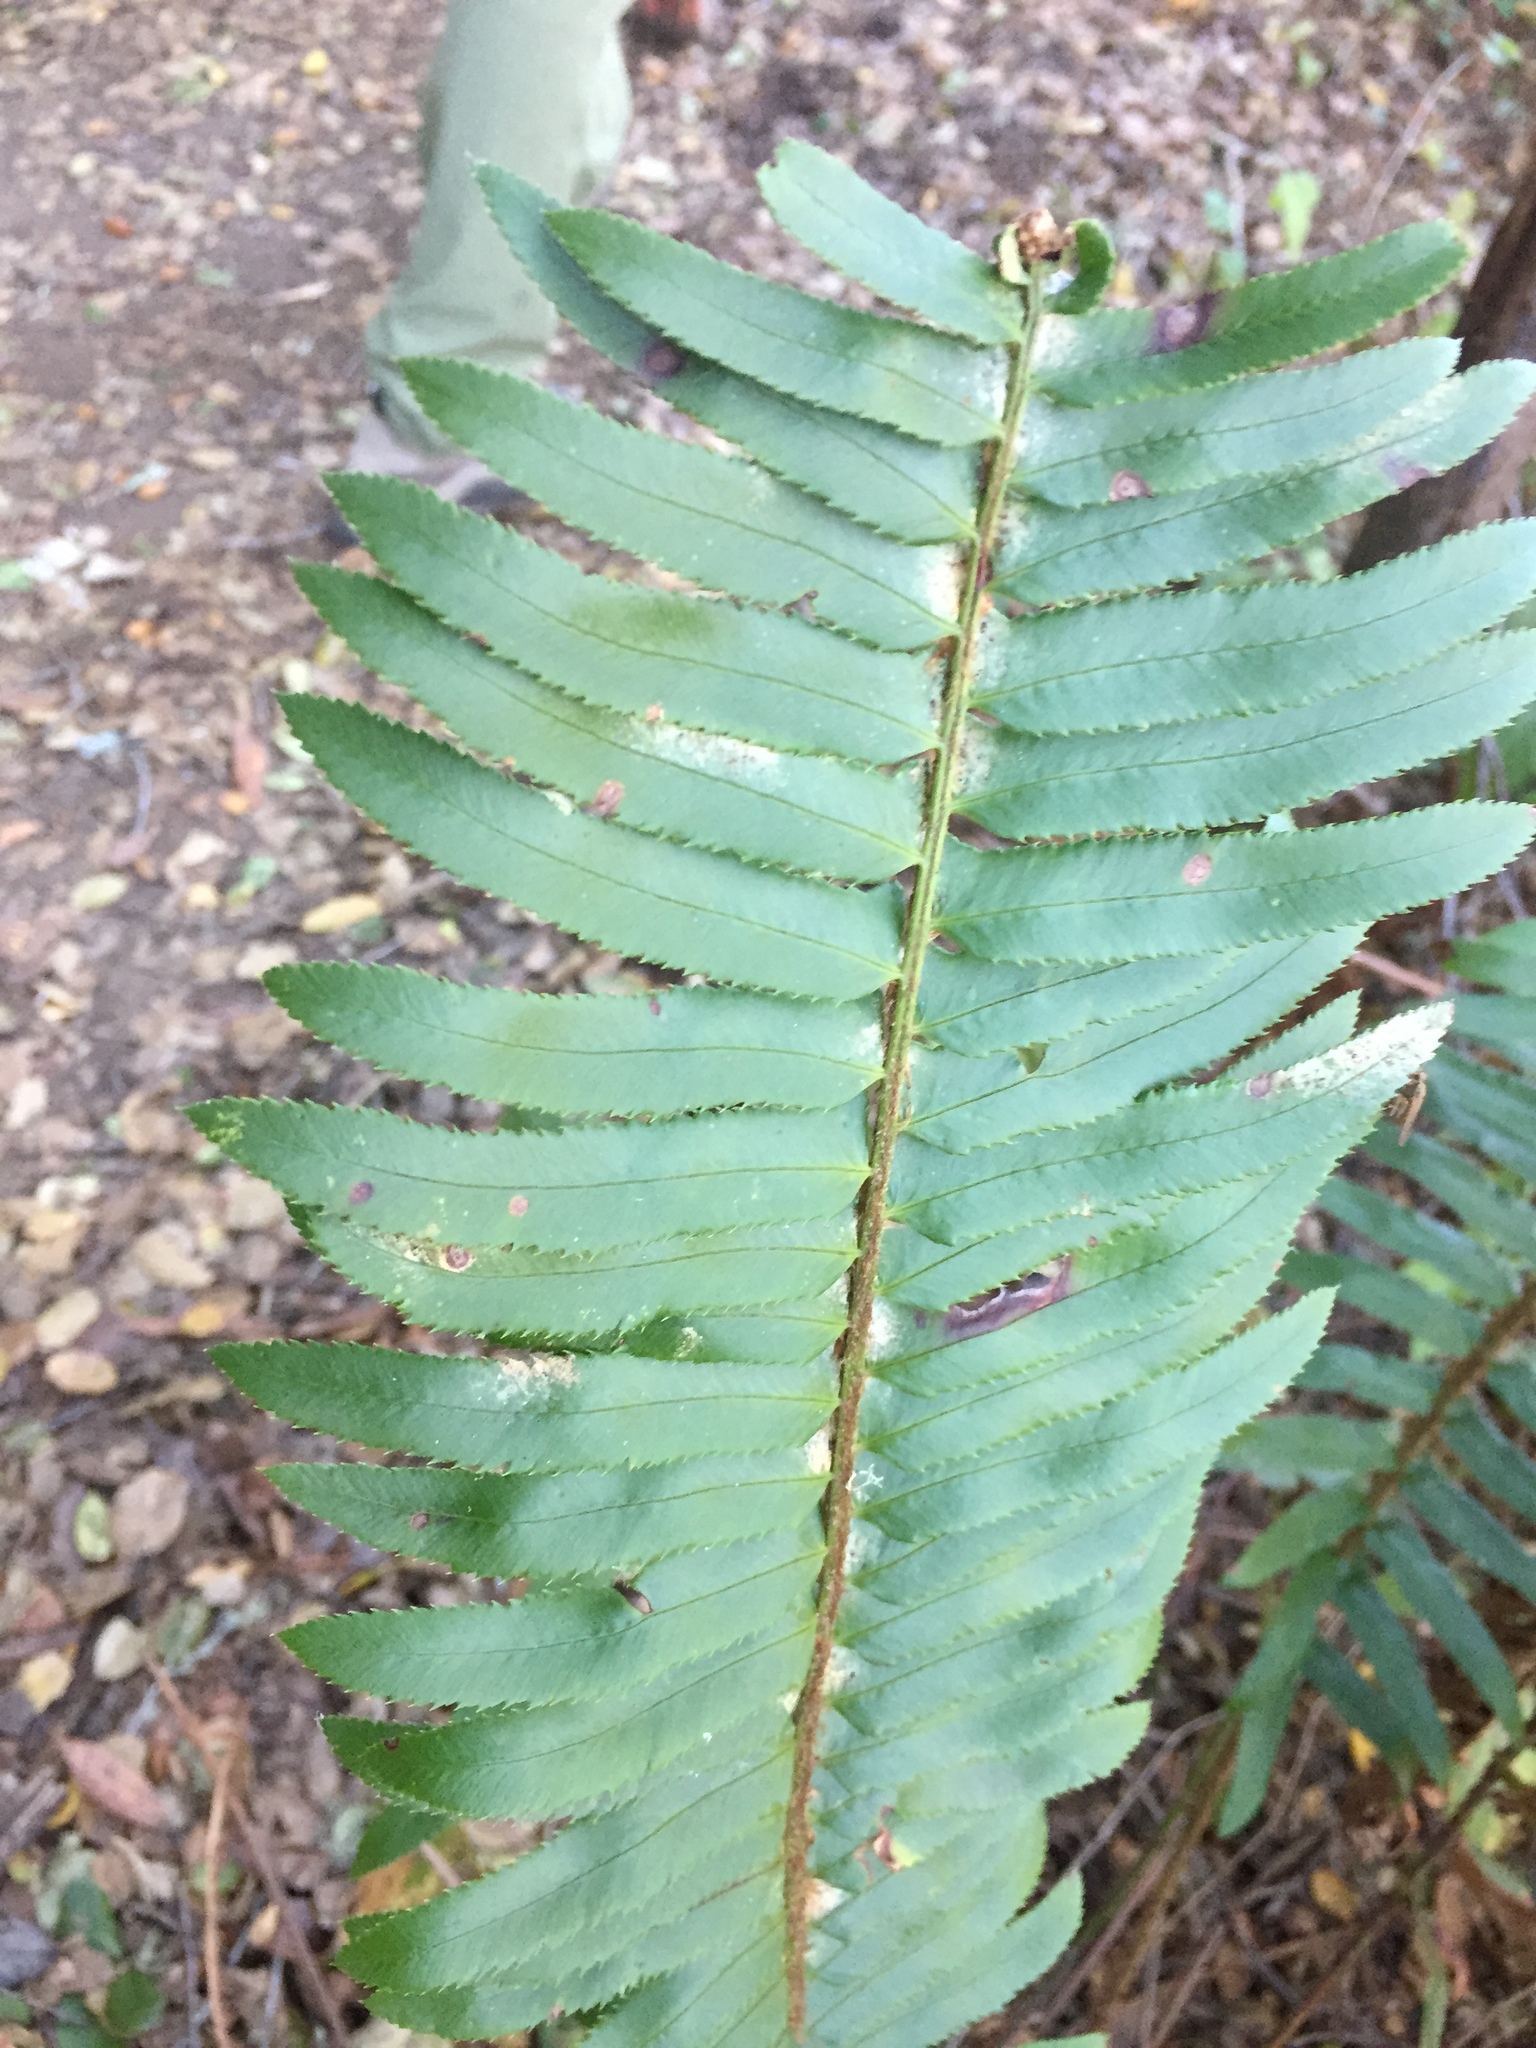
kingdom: Plantae
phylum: Tracheophyta
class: Polypodiopsida
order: Polypodiales
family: Dryopteridaceae
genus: Polystichum
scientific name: Polystichum munitum
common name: Western sword-fern
